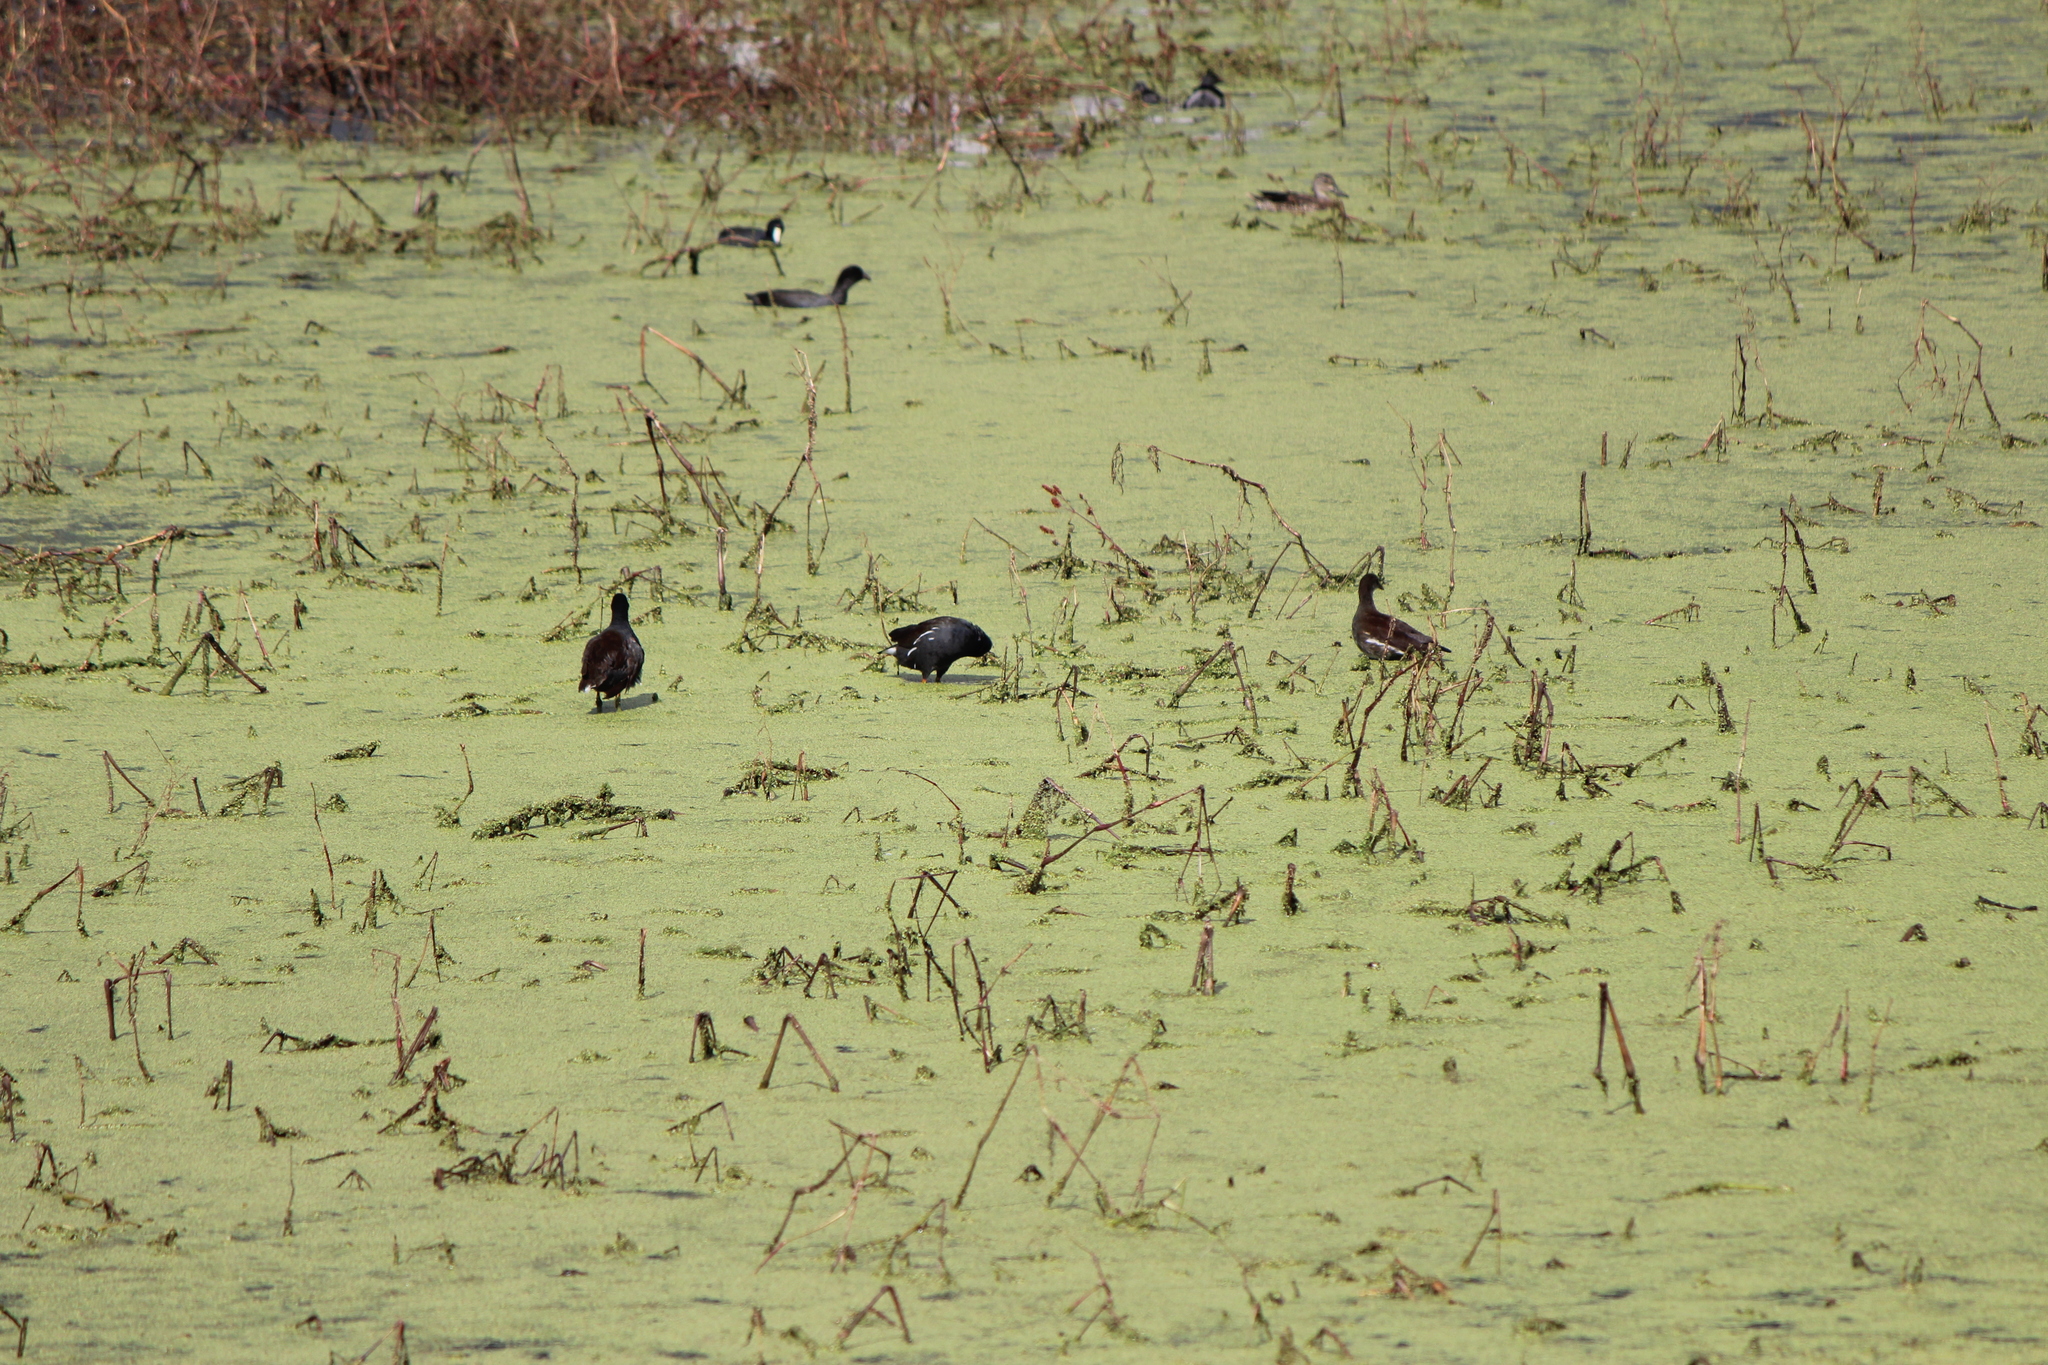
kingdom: Animalia
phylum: Chordata
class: Aves
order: Gruiformes
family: Rallidae
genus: Gallinula
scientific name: Gallinula chloropus
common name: Common moorhen
